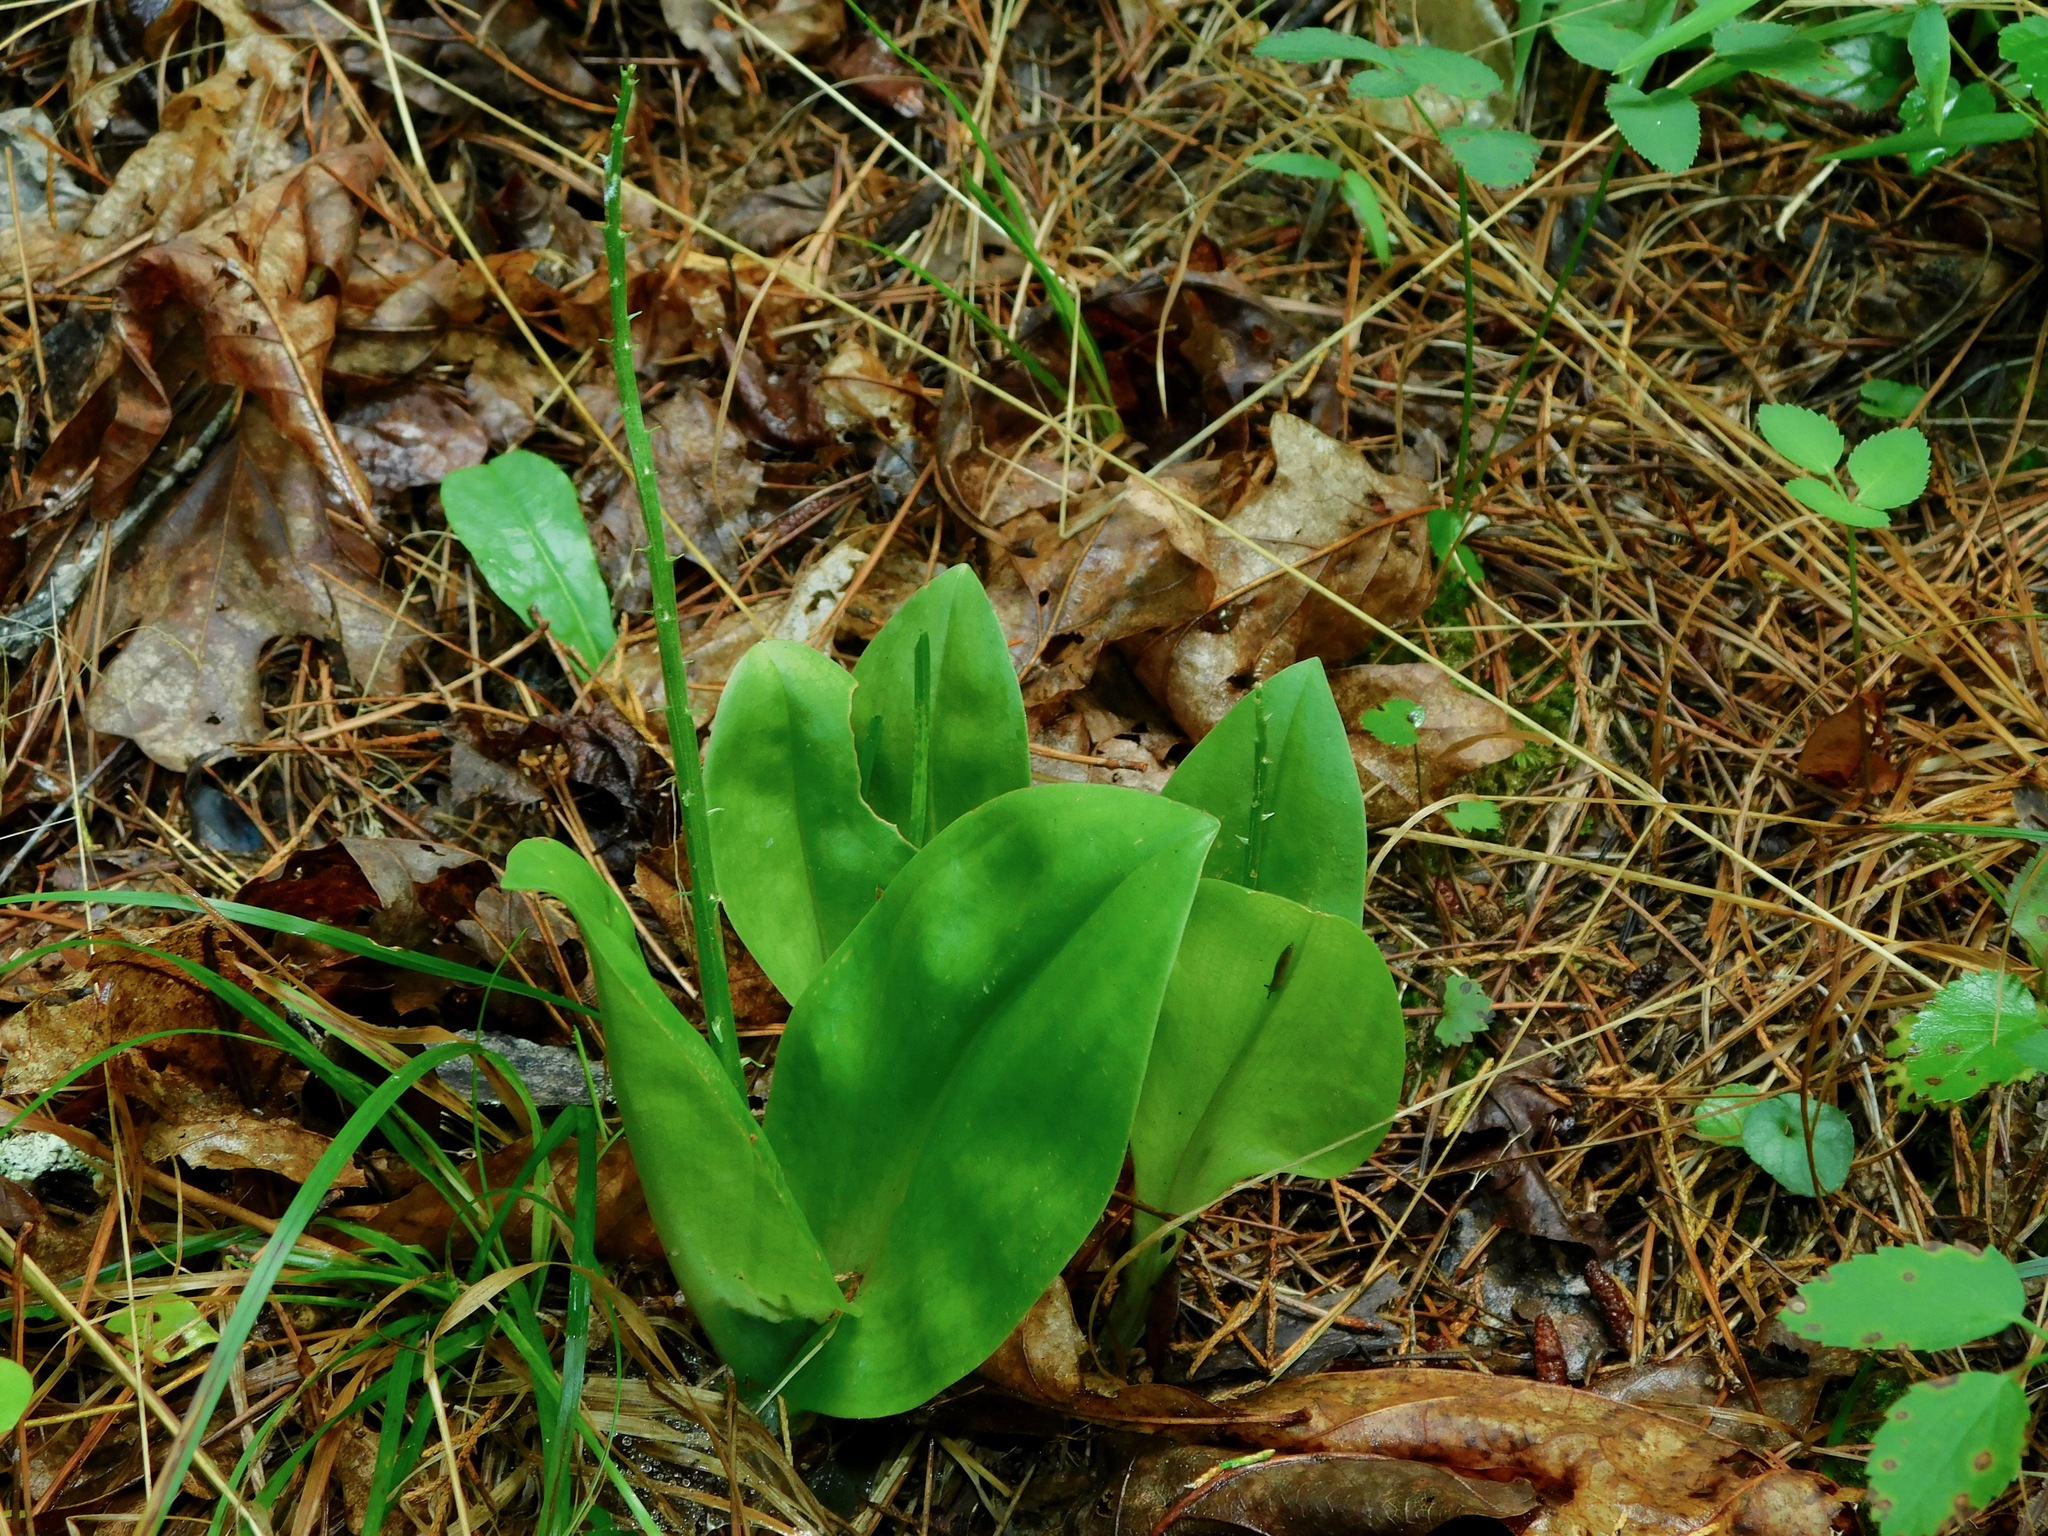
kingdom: Plantae
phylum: Tracheophyta
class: Liliopsida
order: Asparagales
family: Orchidaceae
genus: Liparis
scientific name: Liparis liliifolia
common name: Brown wide-lip orchid
